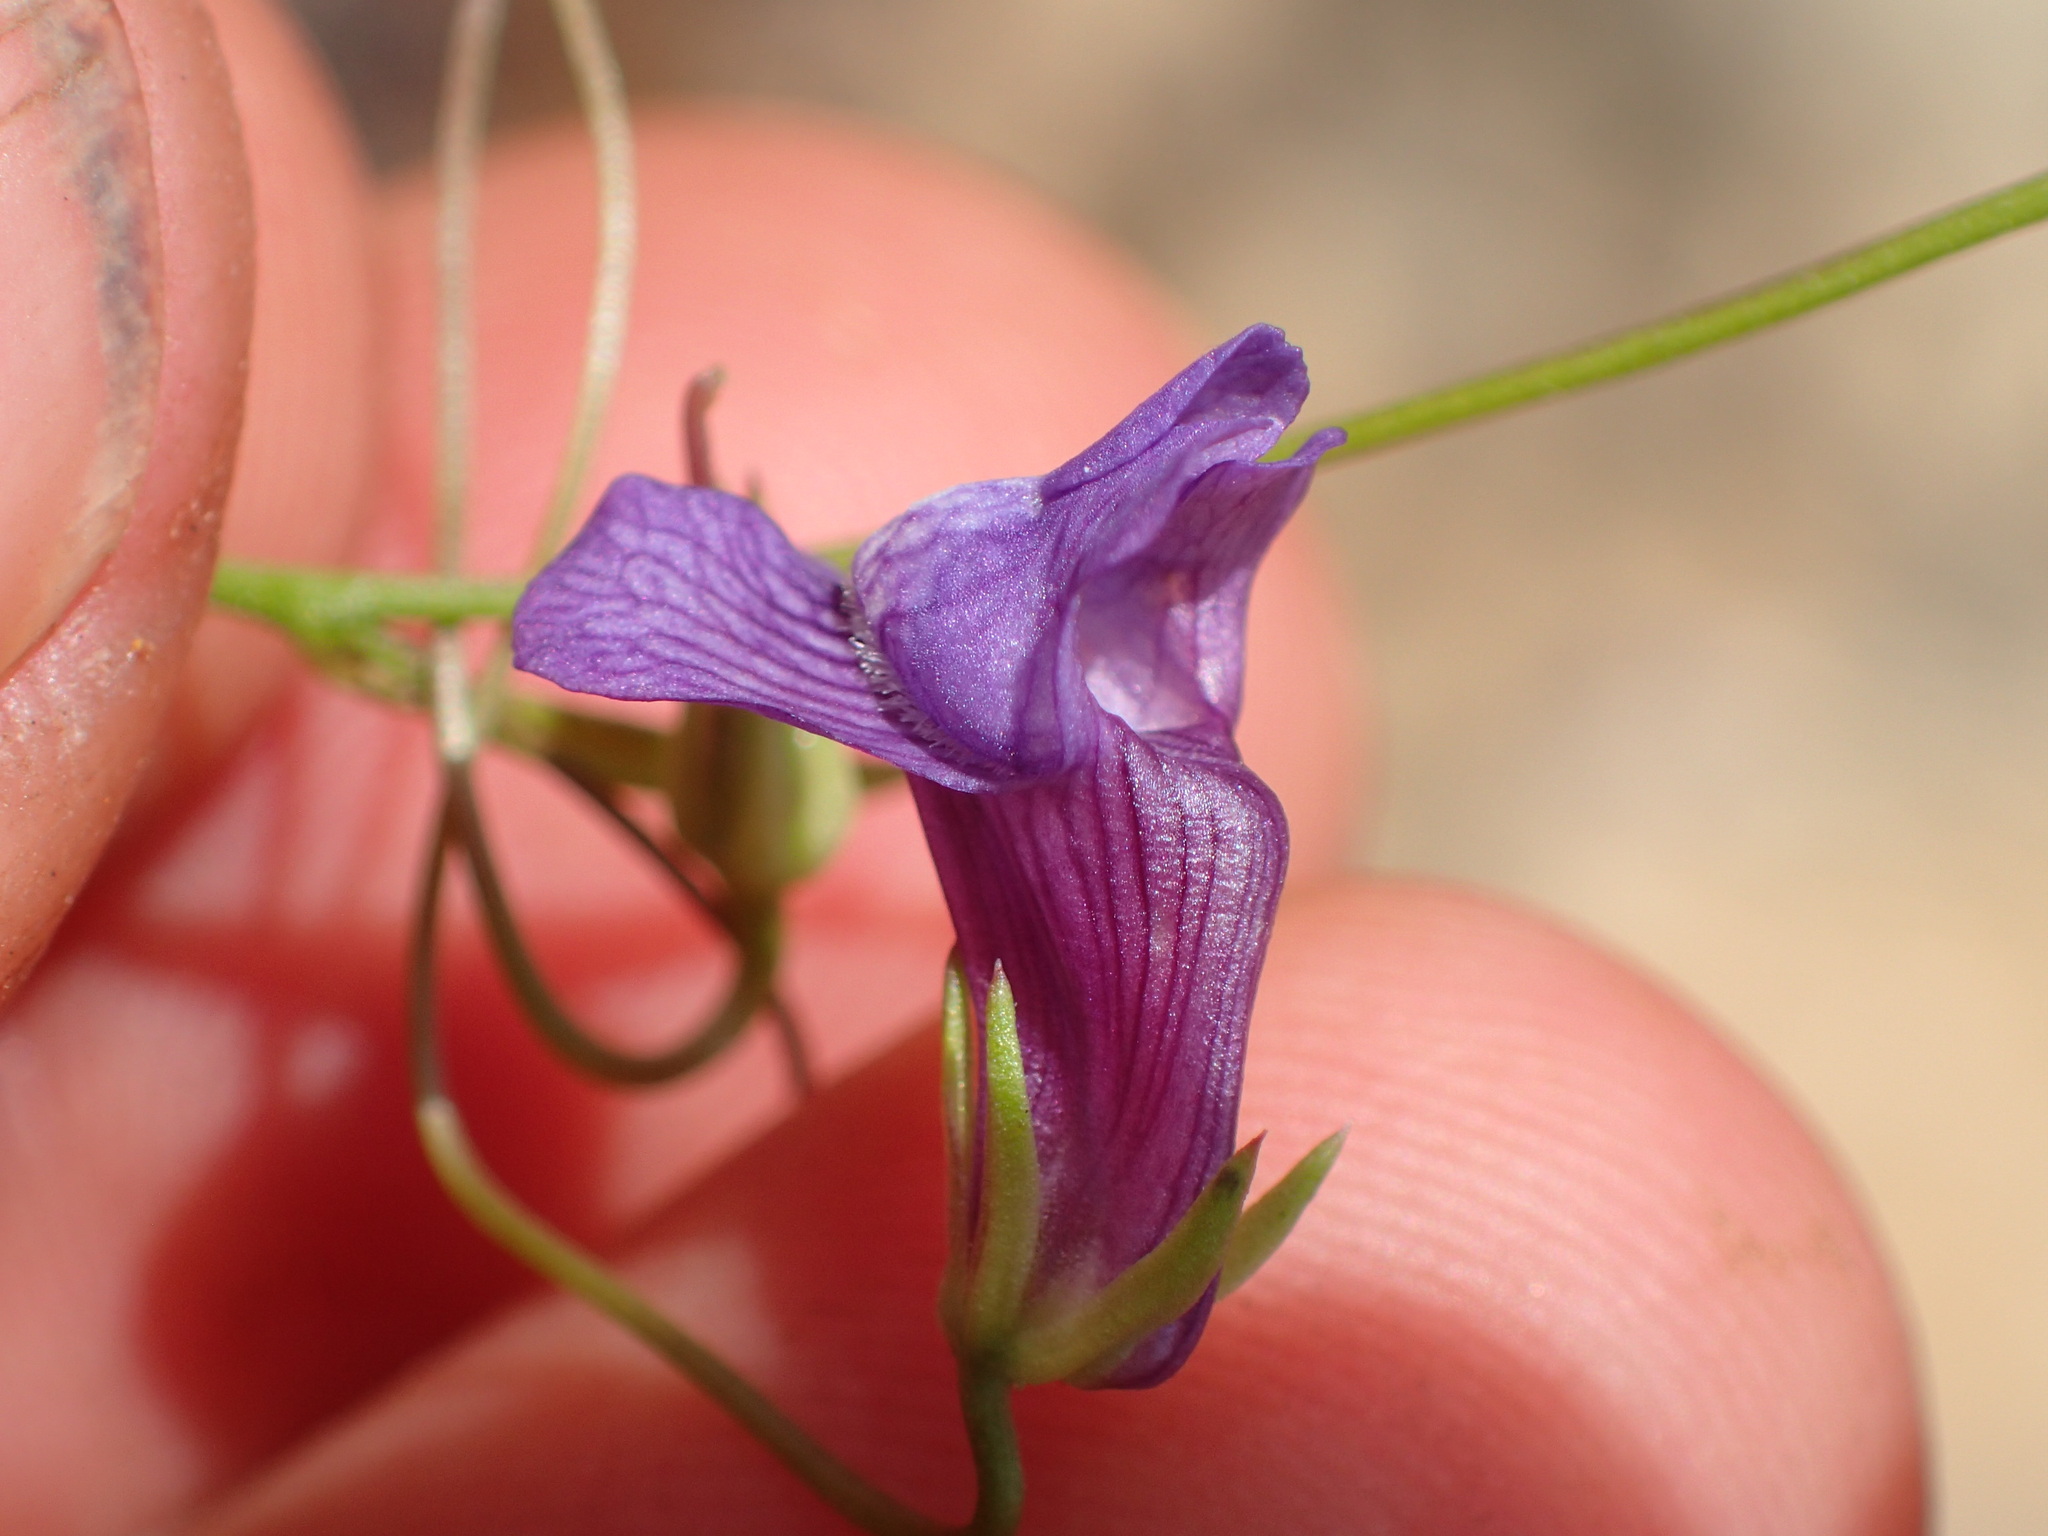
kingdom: Plantae
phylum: Tracheophyta
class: Magnoliopsida
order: Lamiales
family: Plantaginaceae
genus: Neogaerrhinum
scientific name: Neogaerrhinum strictum
